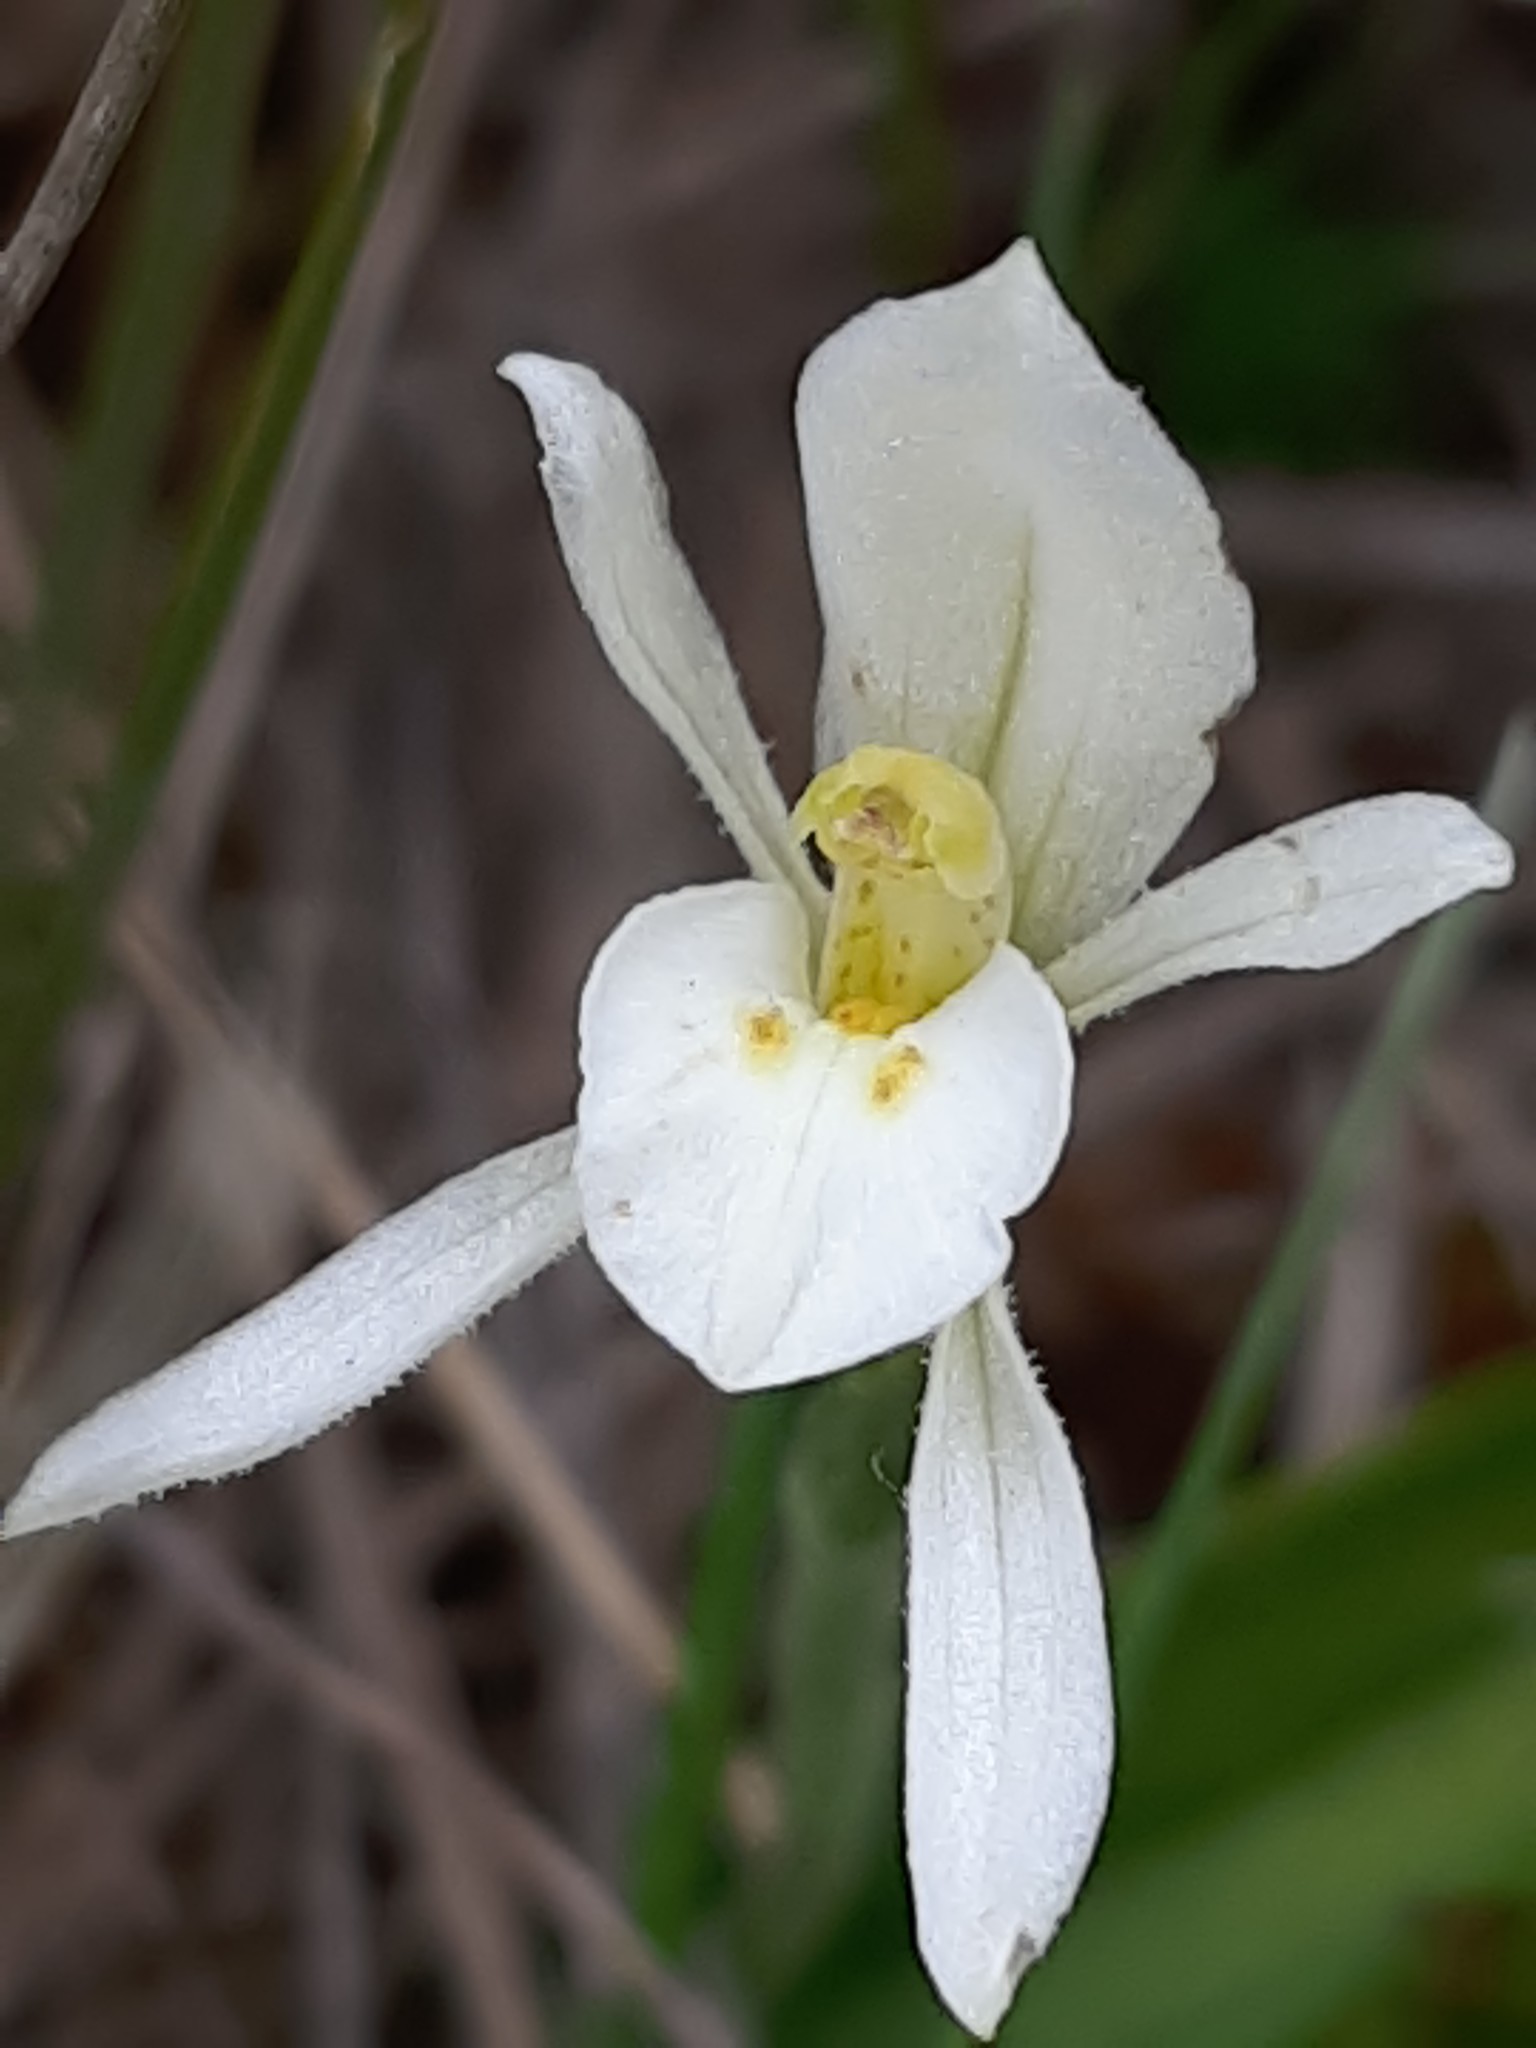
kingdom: Plantae
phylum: Tracheophyta
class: Liliopsida
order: Asparagales
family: Orchidaceae
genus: Aporostylis
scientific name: Aporostylis bifolia
